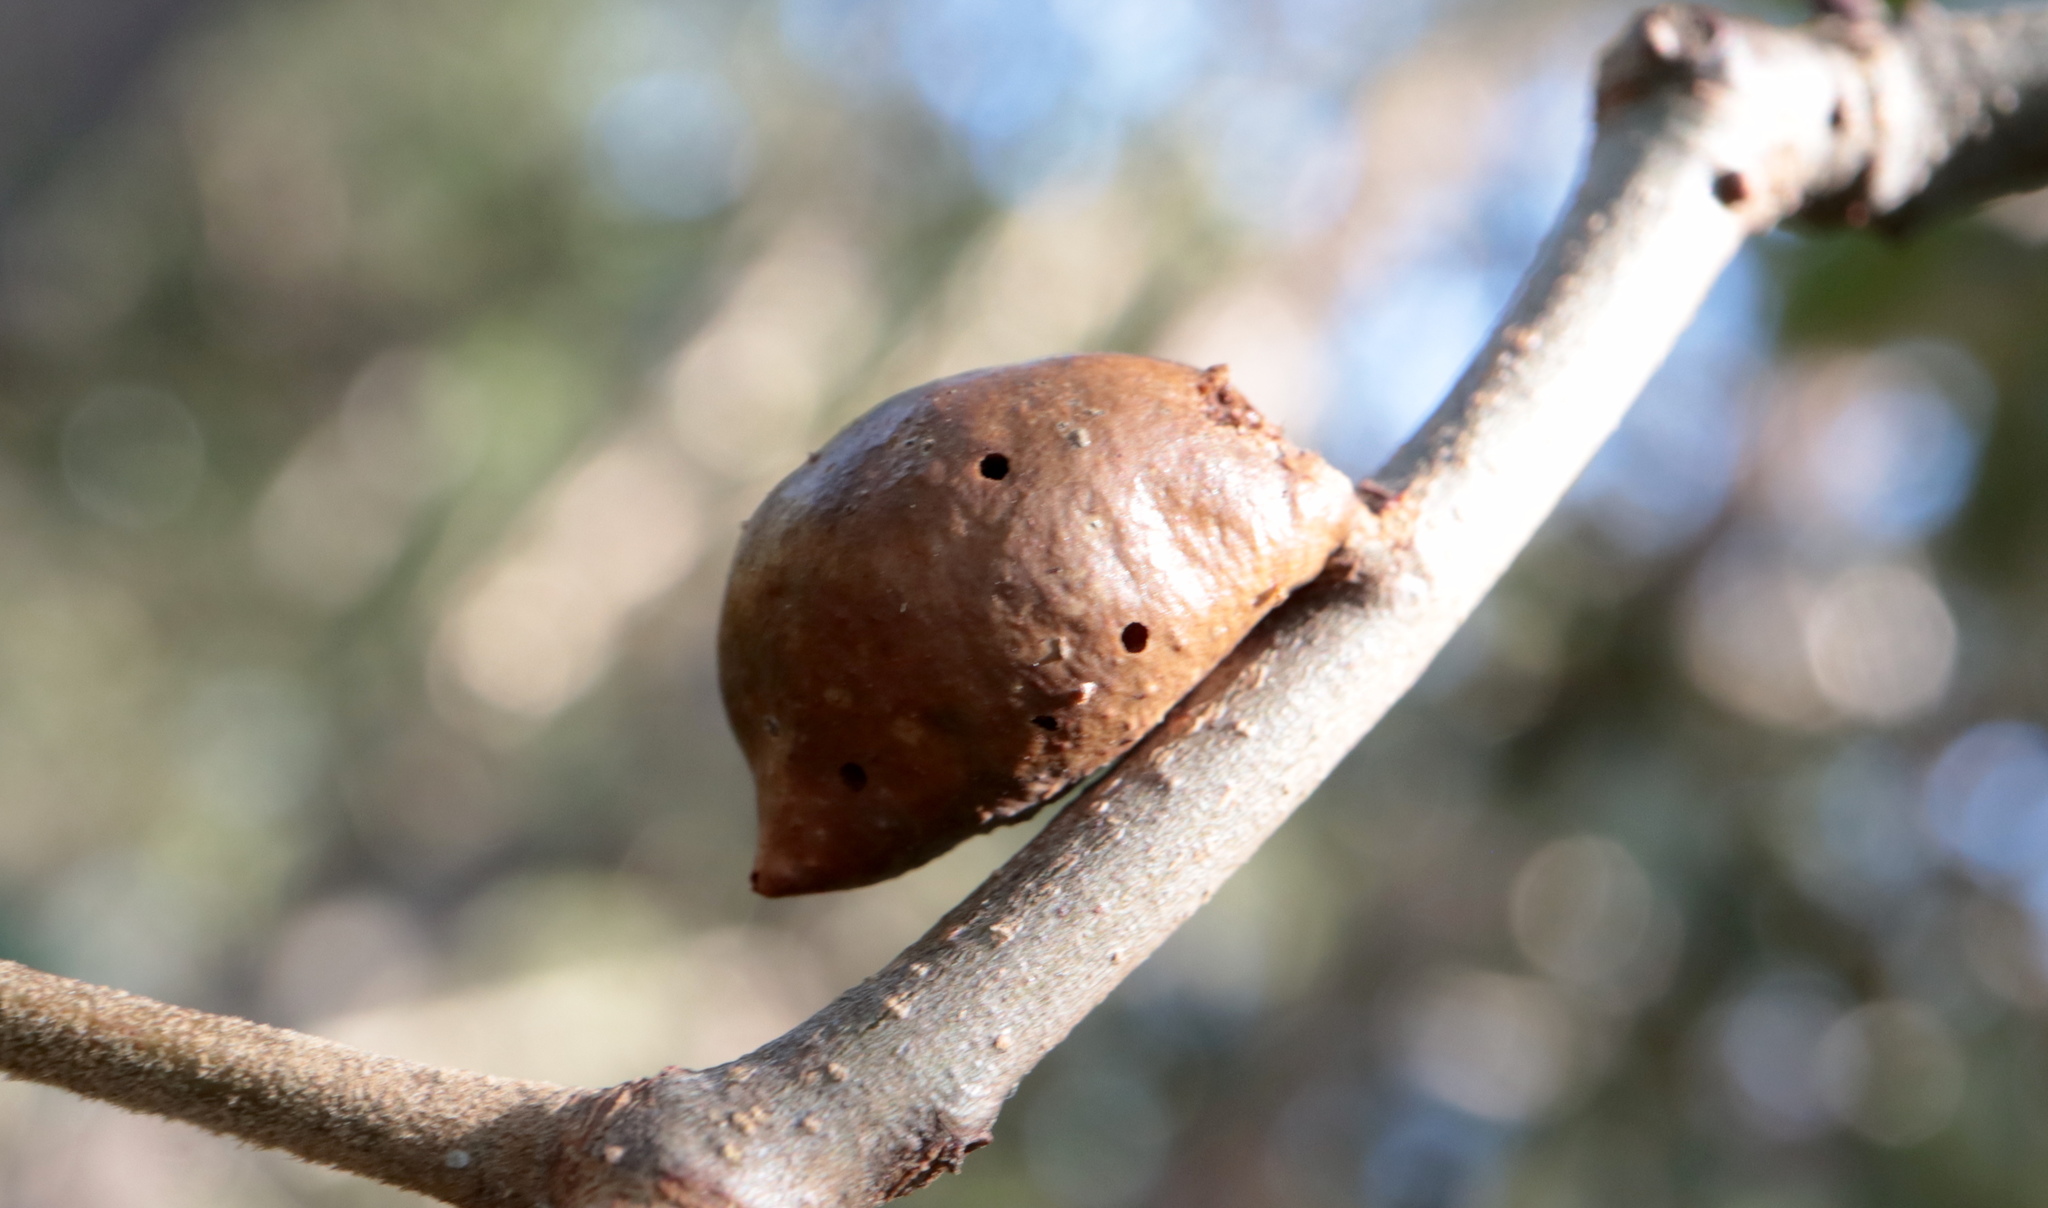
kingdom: Animalia
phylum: Arthropoda
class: Insecta
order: Hymenoptera
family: Cynipidae
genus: Amphibolips
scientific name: Amphibolips
